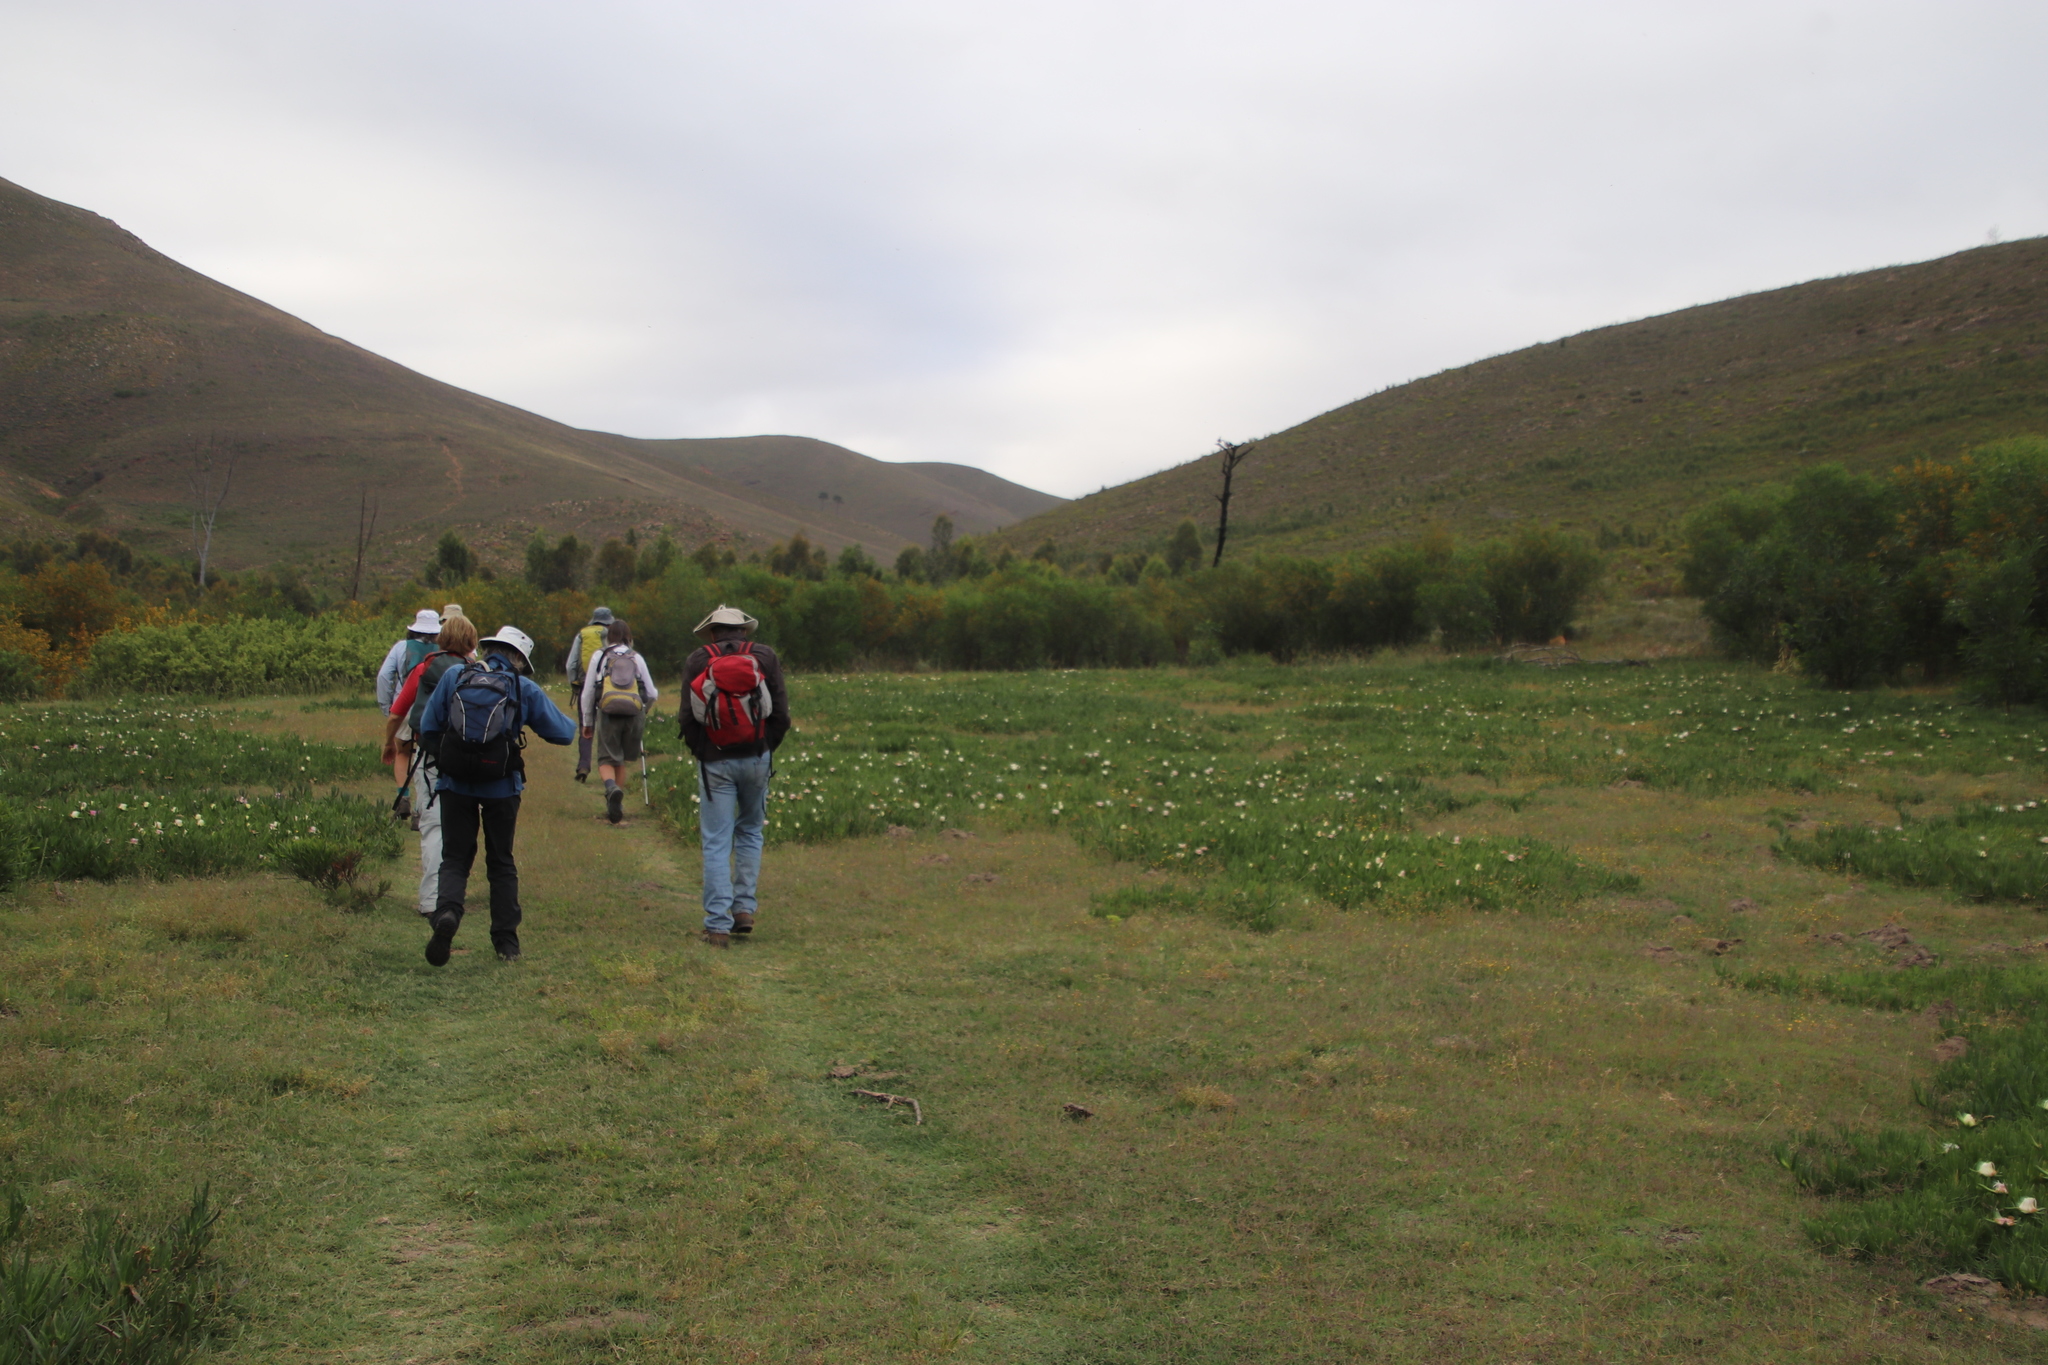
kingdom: Plantae
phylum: Tracheophyta
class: Magnoliopsida
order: Caryophyllales
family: Aizoaceae
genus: Carpobrotus
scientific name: Carpobrotus edulis
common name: Hottentot-fig
